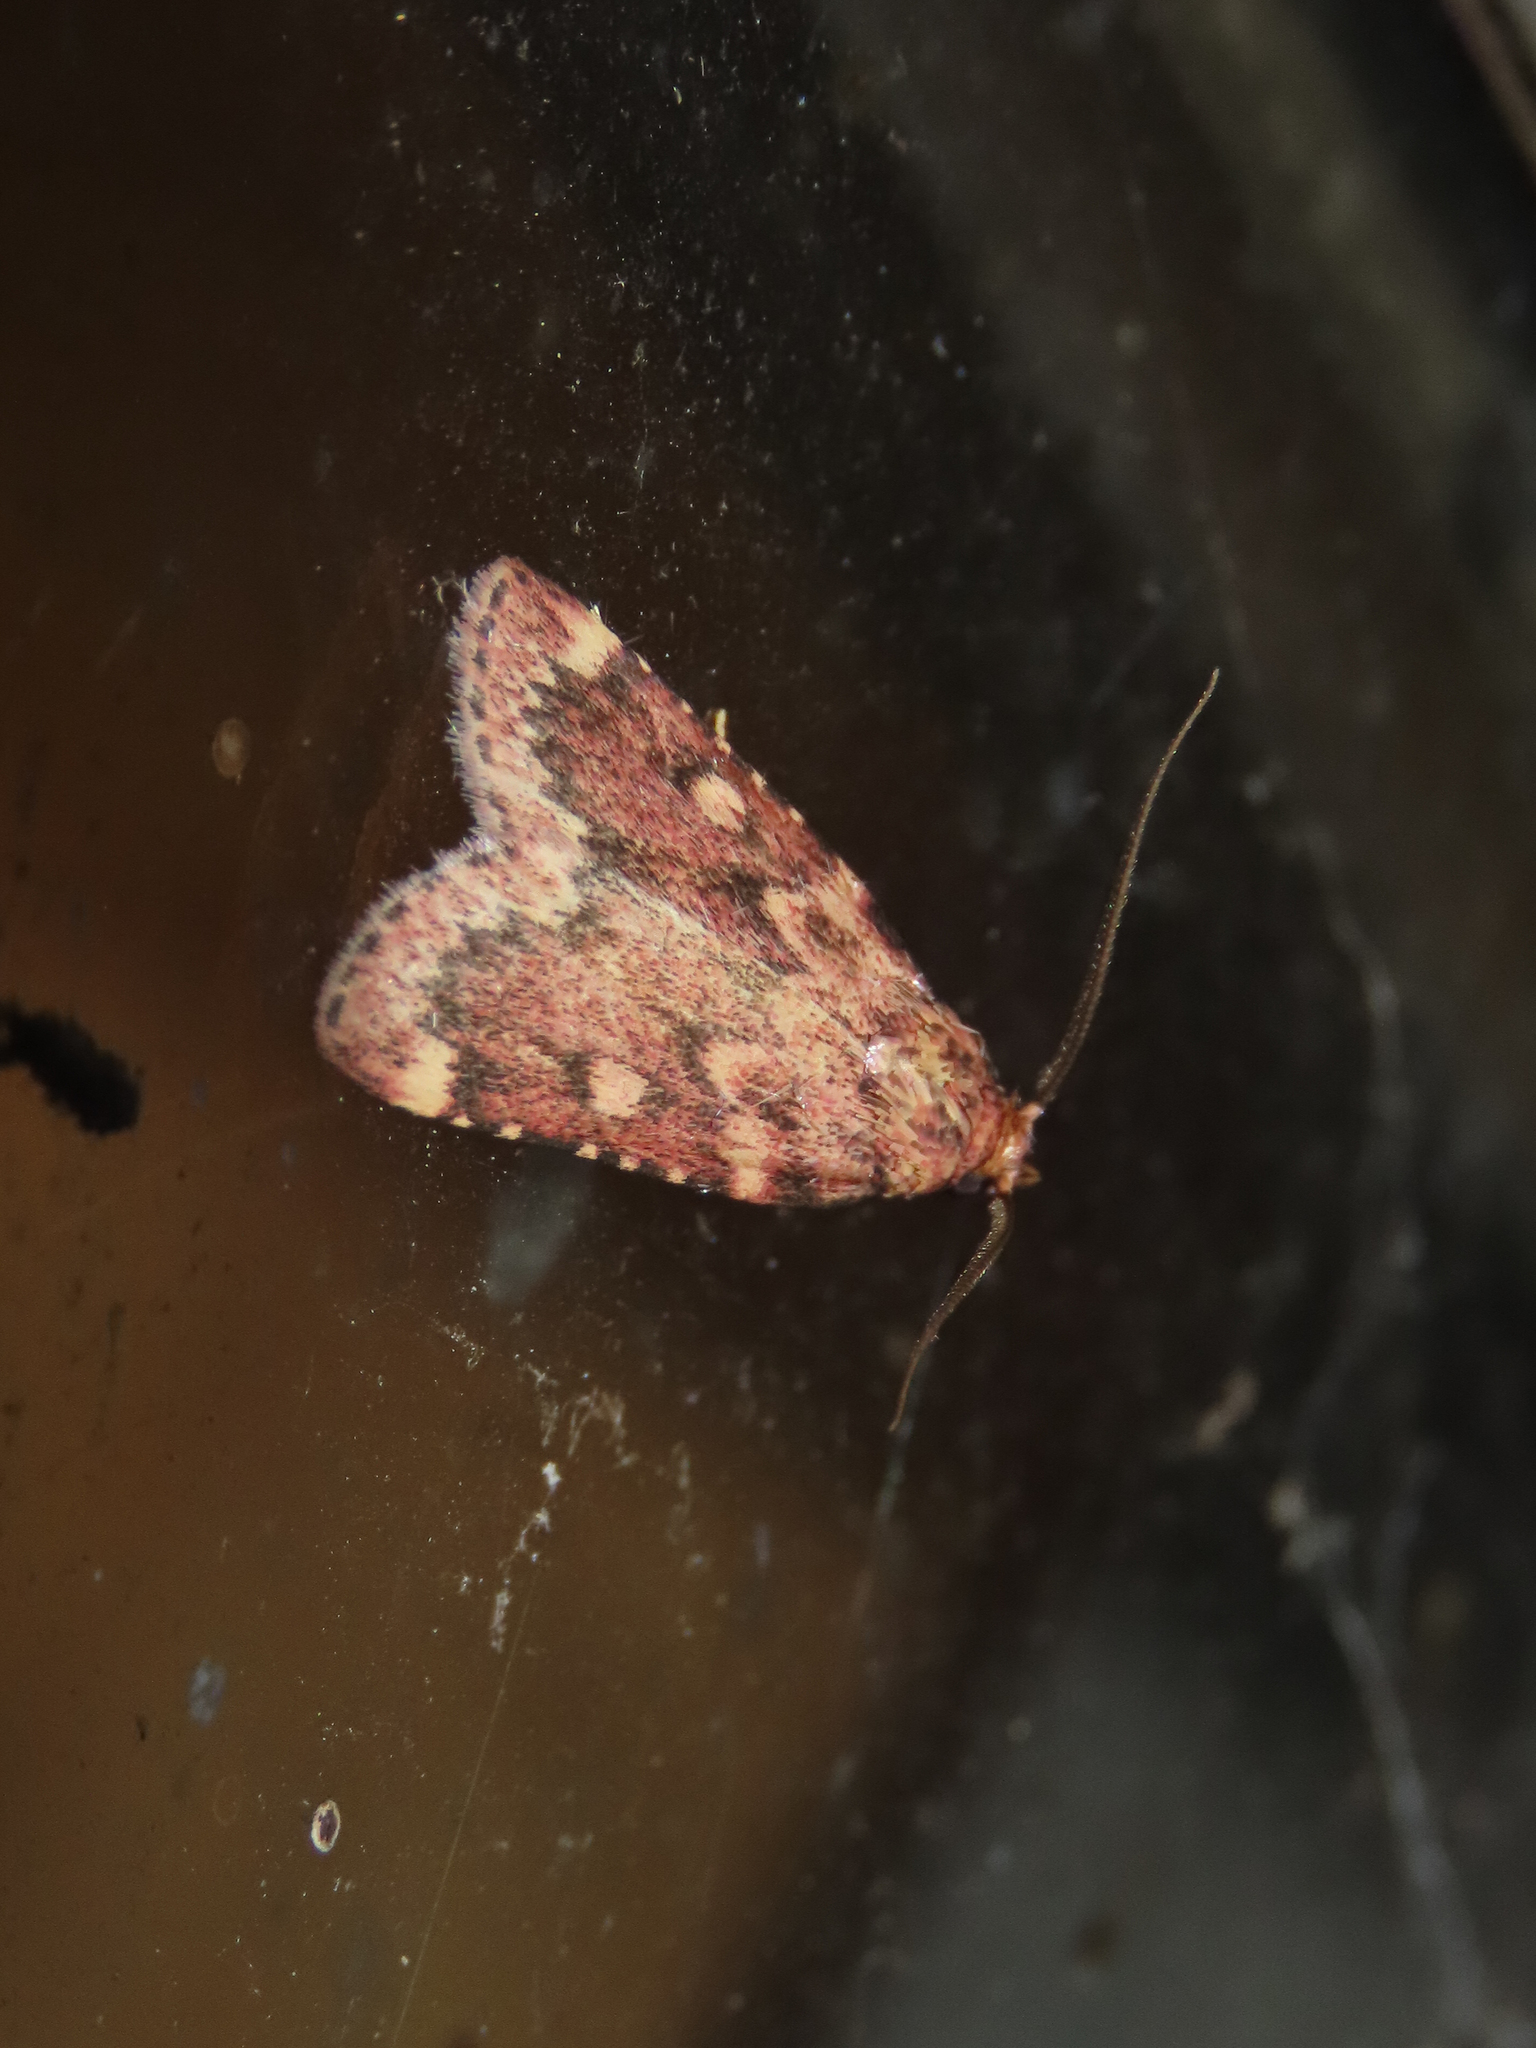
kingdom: Animalia
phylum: Arthropoda
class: Insecta
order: Lepidoptera
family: Pyralidae
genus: Aglossa
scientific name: Aglossa cuprina
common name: Grease moth
